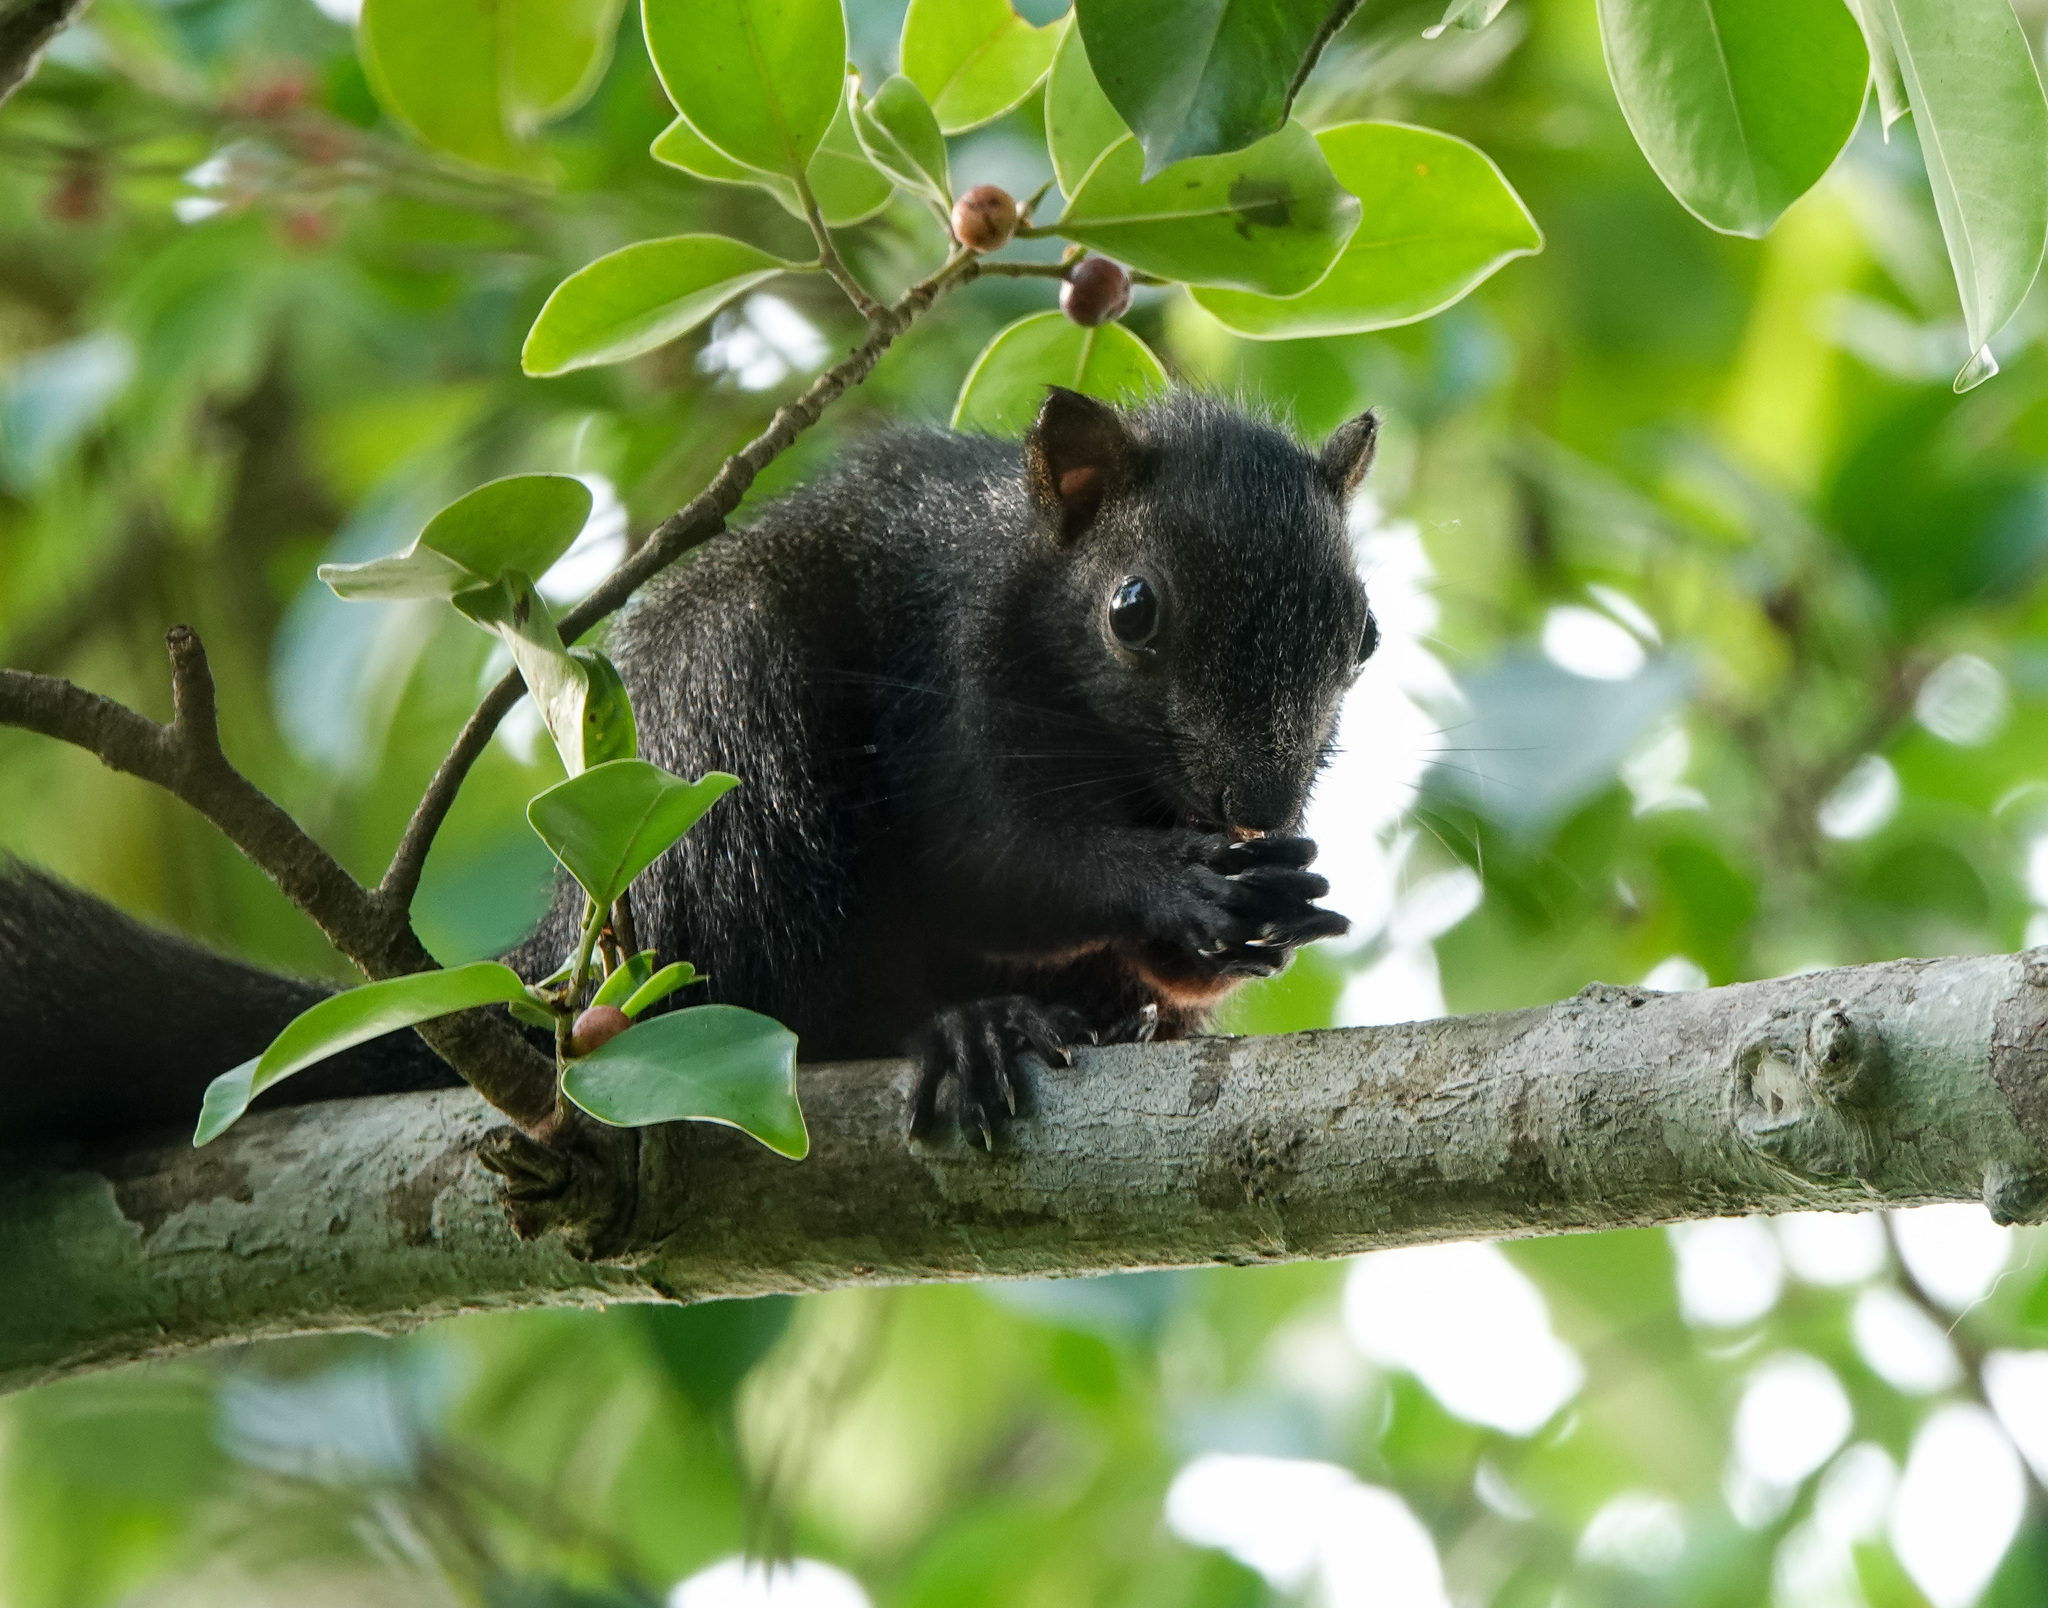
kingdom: Animalia
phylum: Chordata
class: Mammalia
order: Rodentia
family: Sciuridae
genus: Callosciurus
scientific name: Callosciurus erythraeus
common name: Pallas's squirrel
